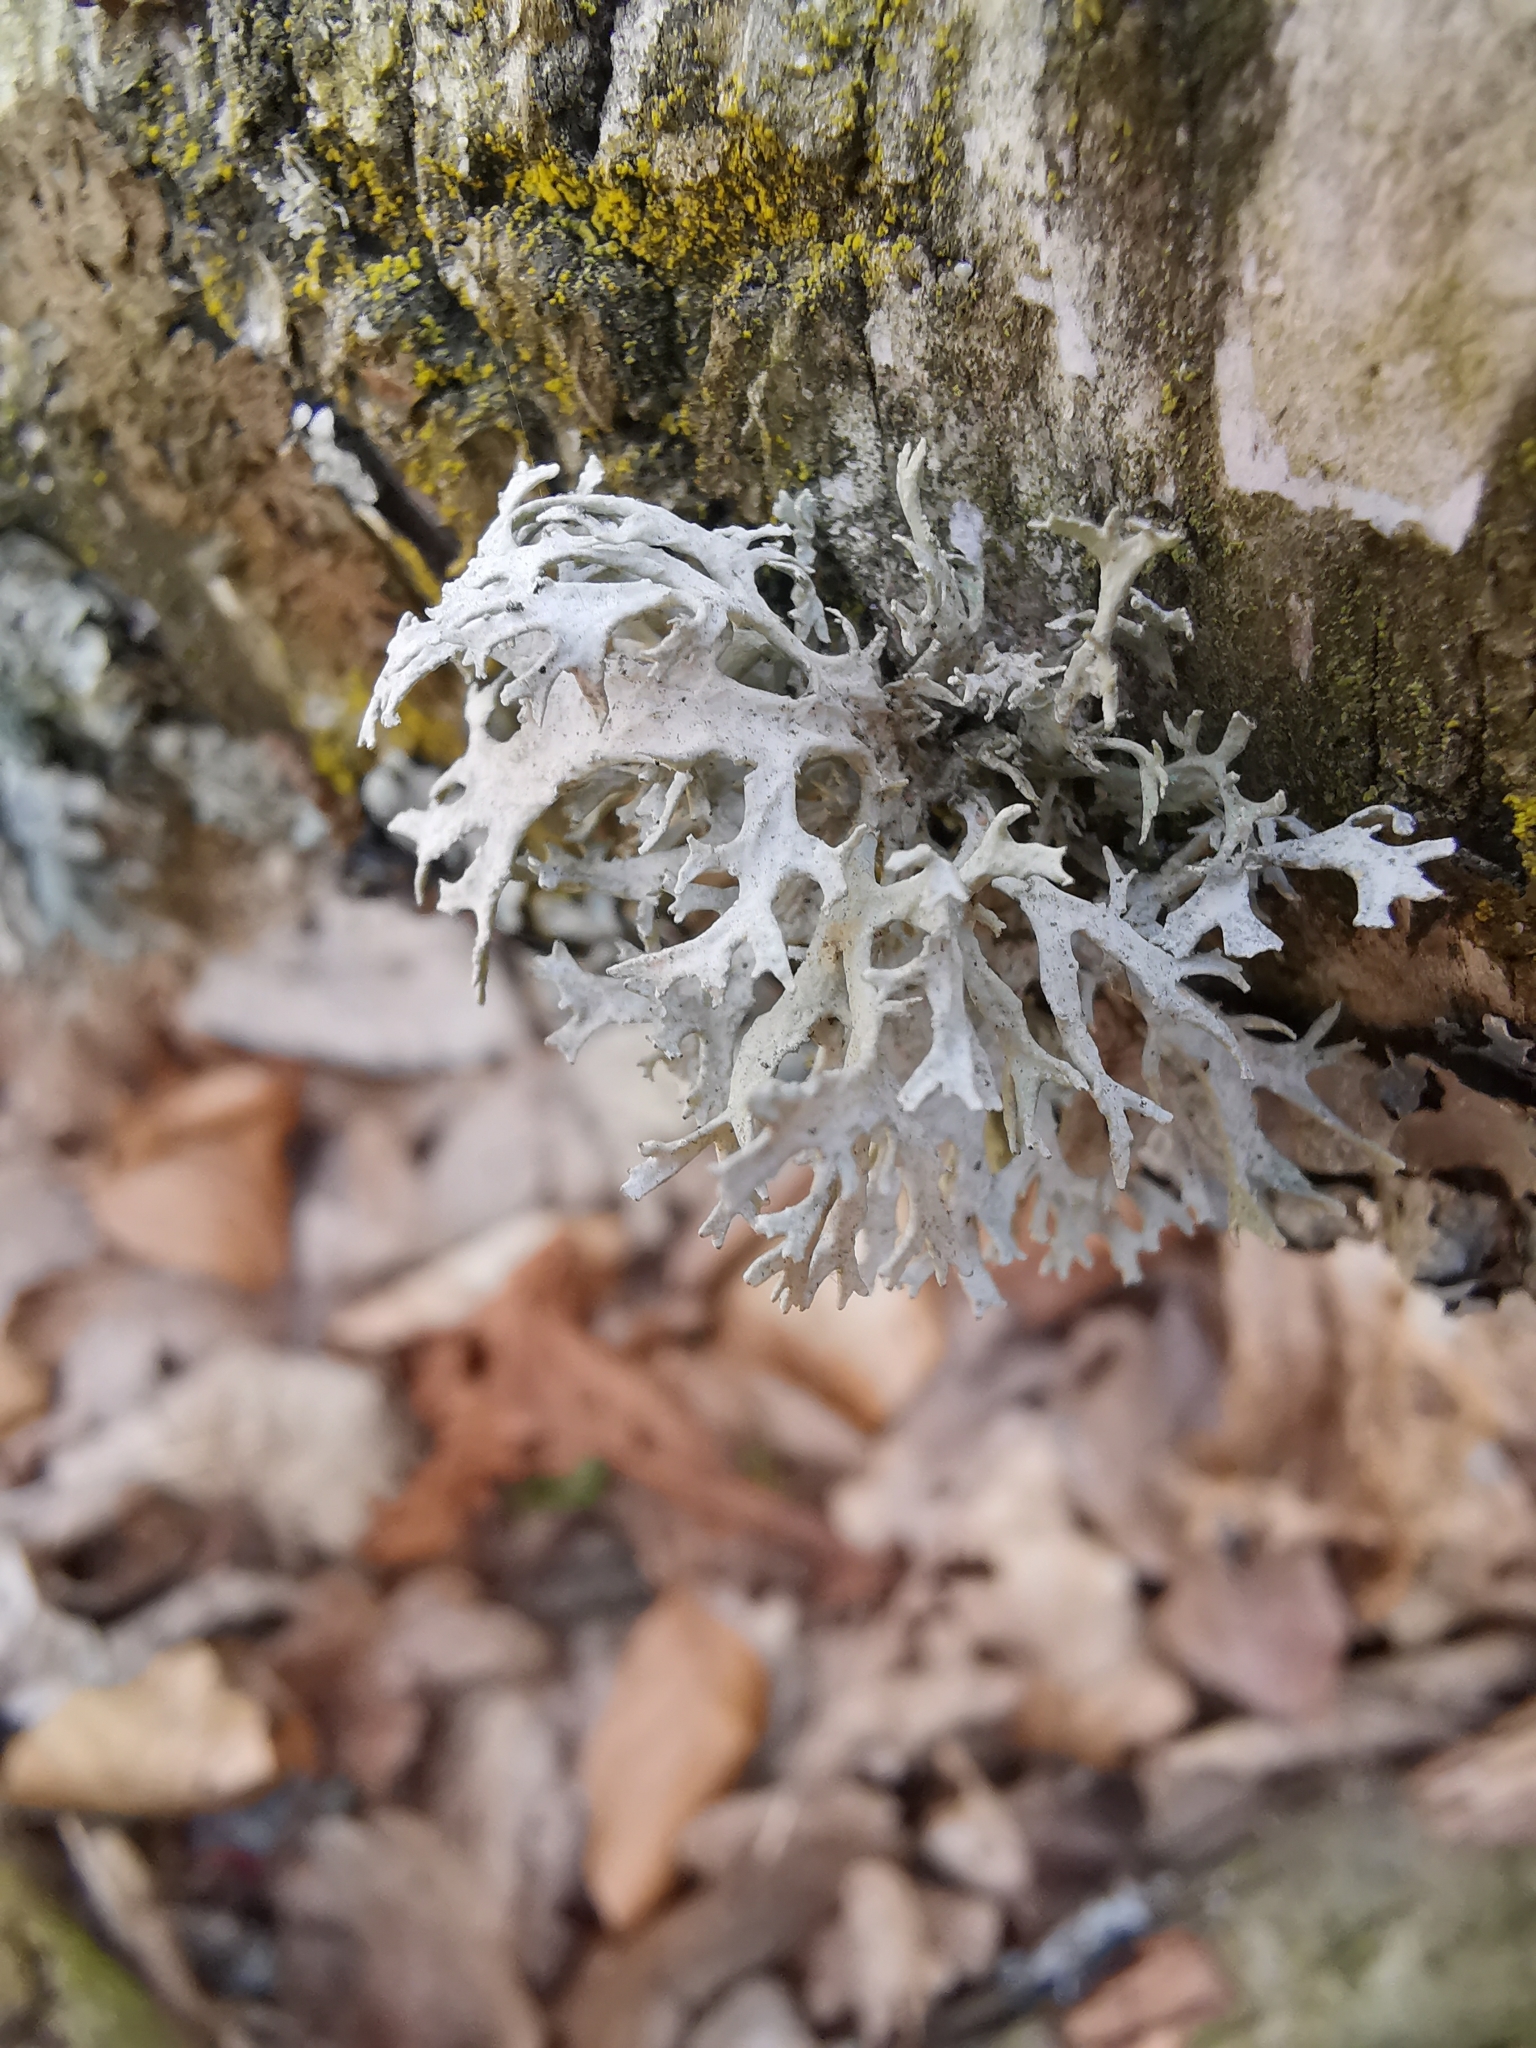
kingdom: Fungi
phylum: Ascomycota
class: Lecanoromycetes
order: Lecanorales
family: Parmeliaceae
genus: Evernia
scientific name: Evernia prunastri
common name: Oak moss
